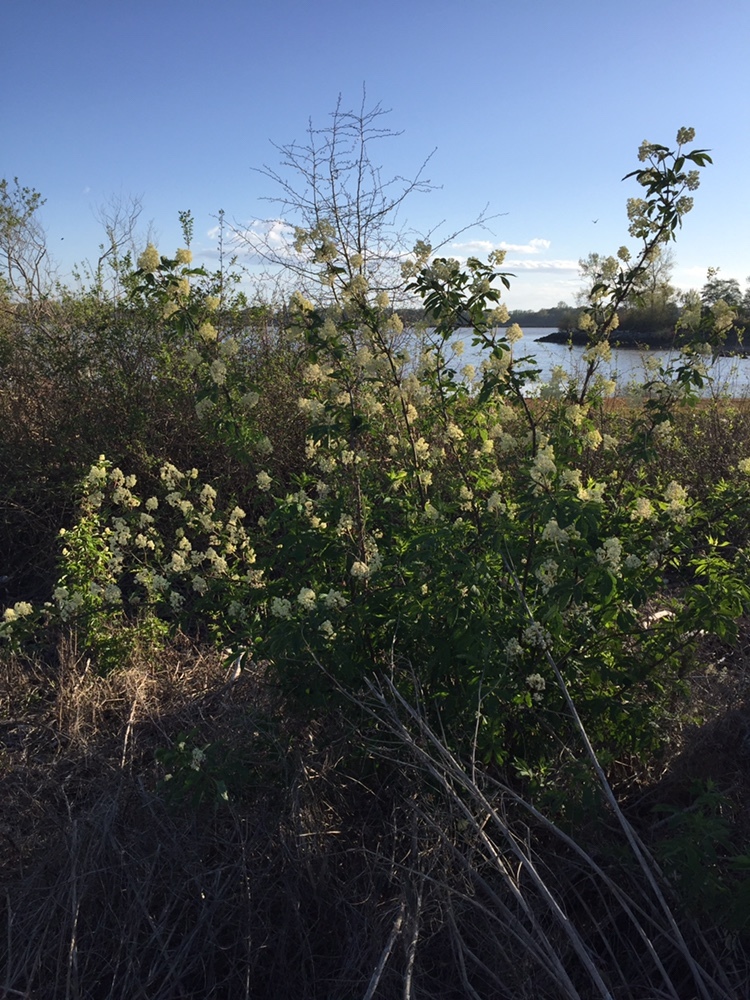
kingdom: Plantae
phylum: Tracheophyta
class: Magnoliopsida
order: Dipsacales
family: Viburnaceae
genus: Sambucus
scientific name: Sambucus racemosa
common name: Red-berried elder
